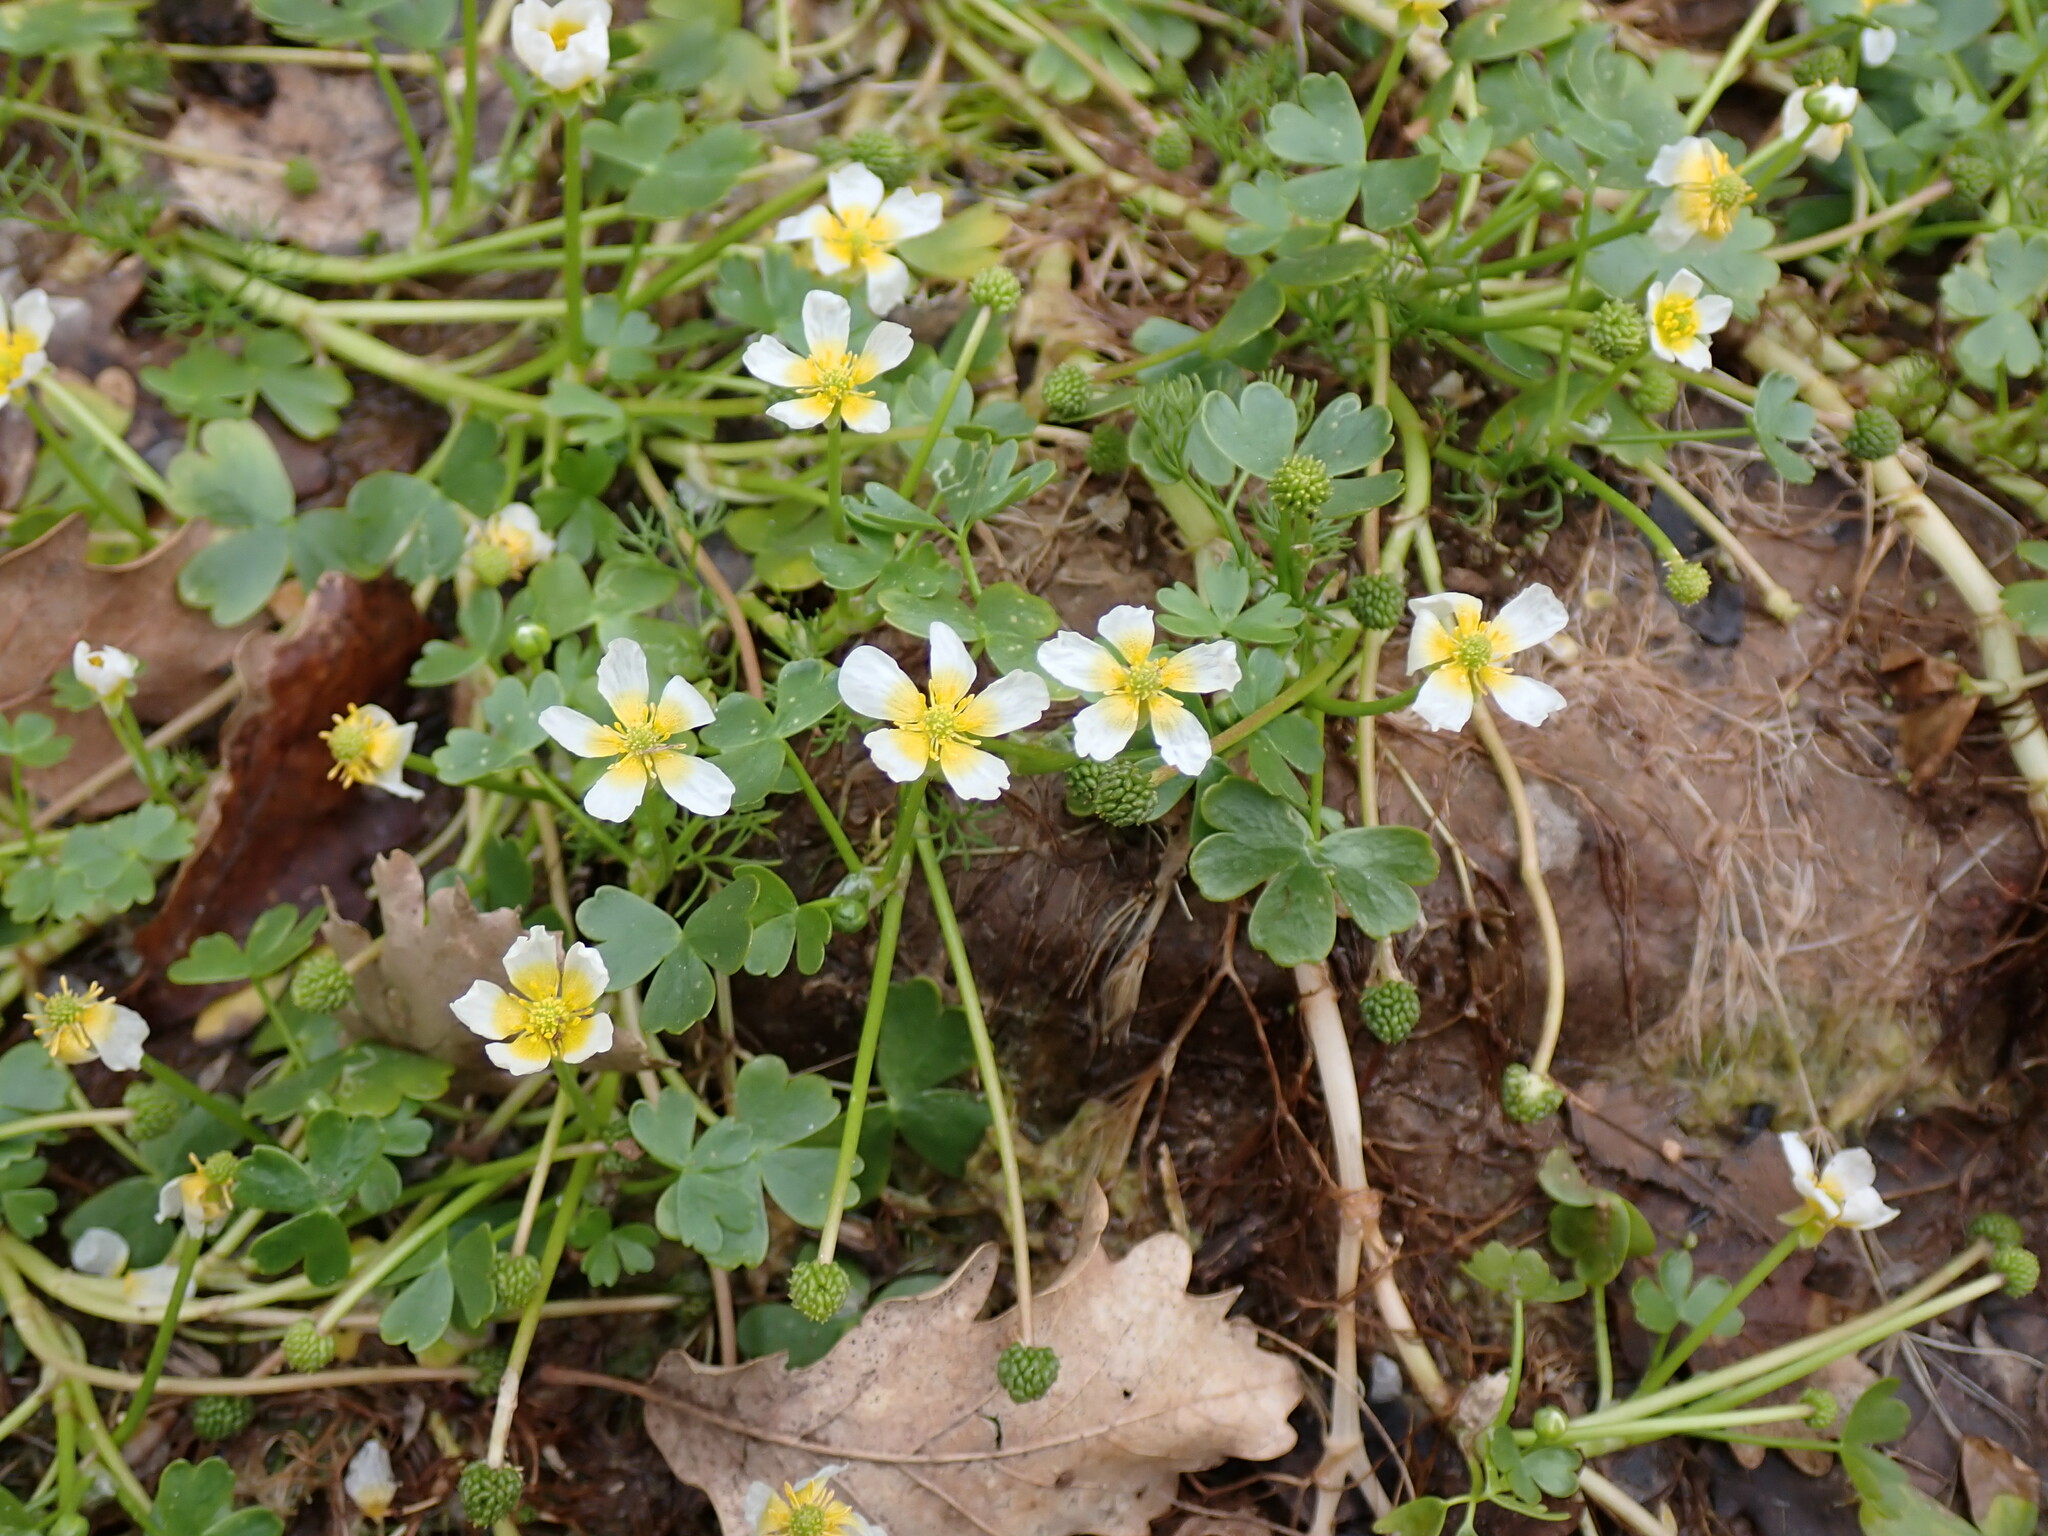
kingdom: Plantae
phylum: Tracheophyta
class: Magnoliopsida
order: Ranunculales
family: Ranunculaceae
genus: Ranunculus
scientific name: Ranunculus peltatus
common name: Pond water-crowfoot
